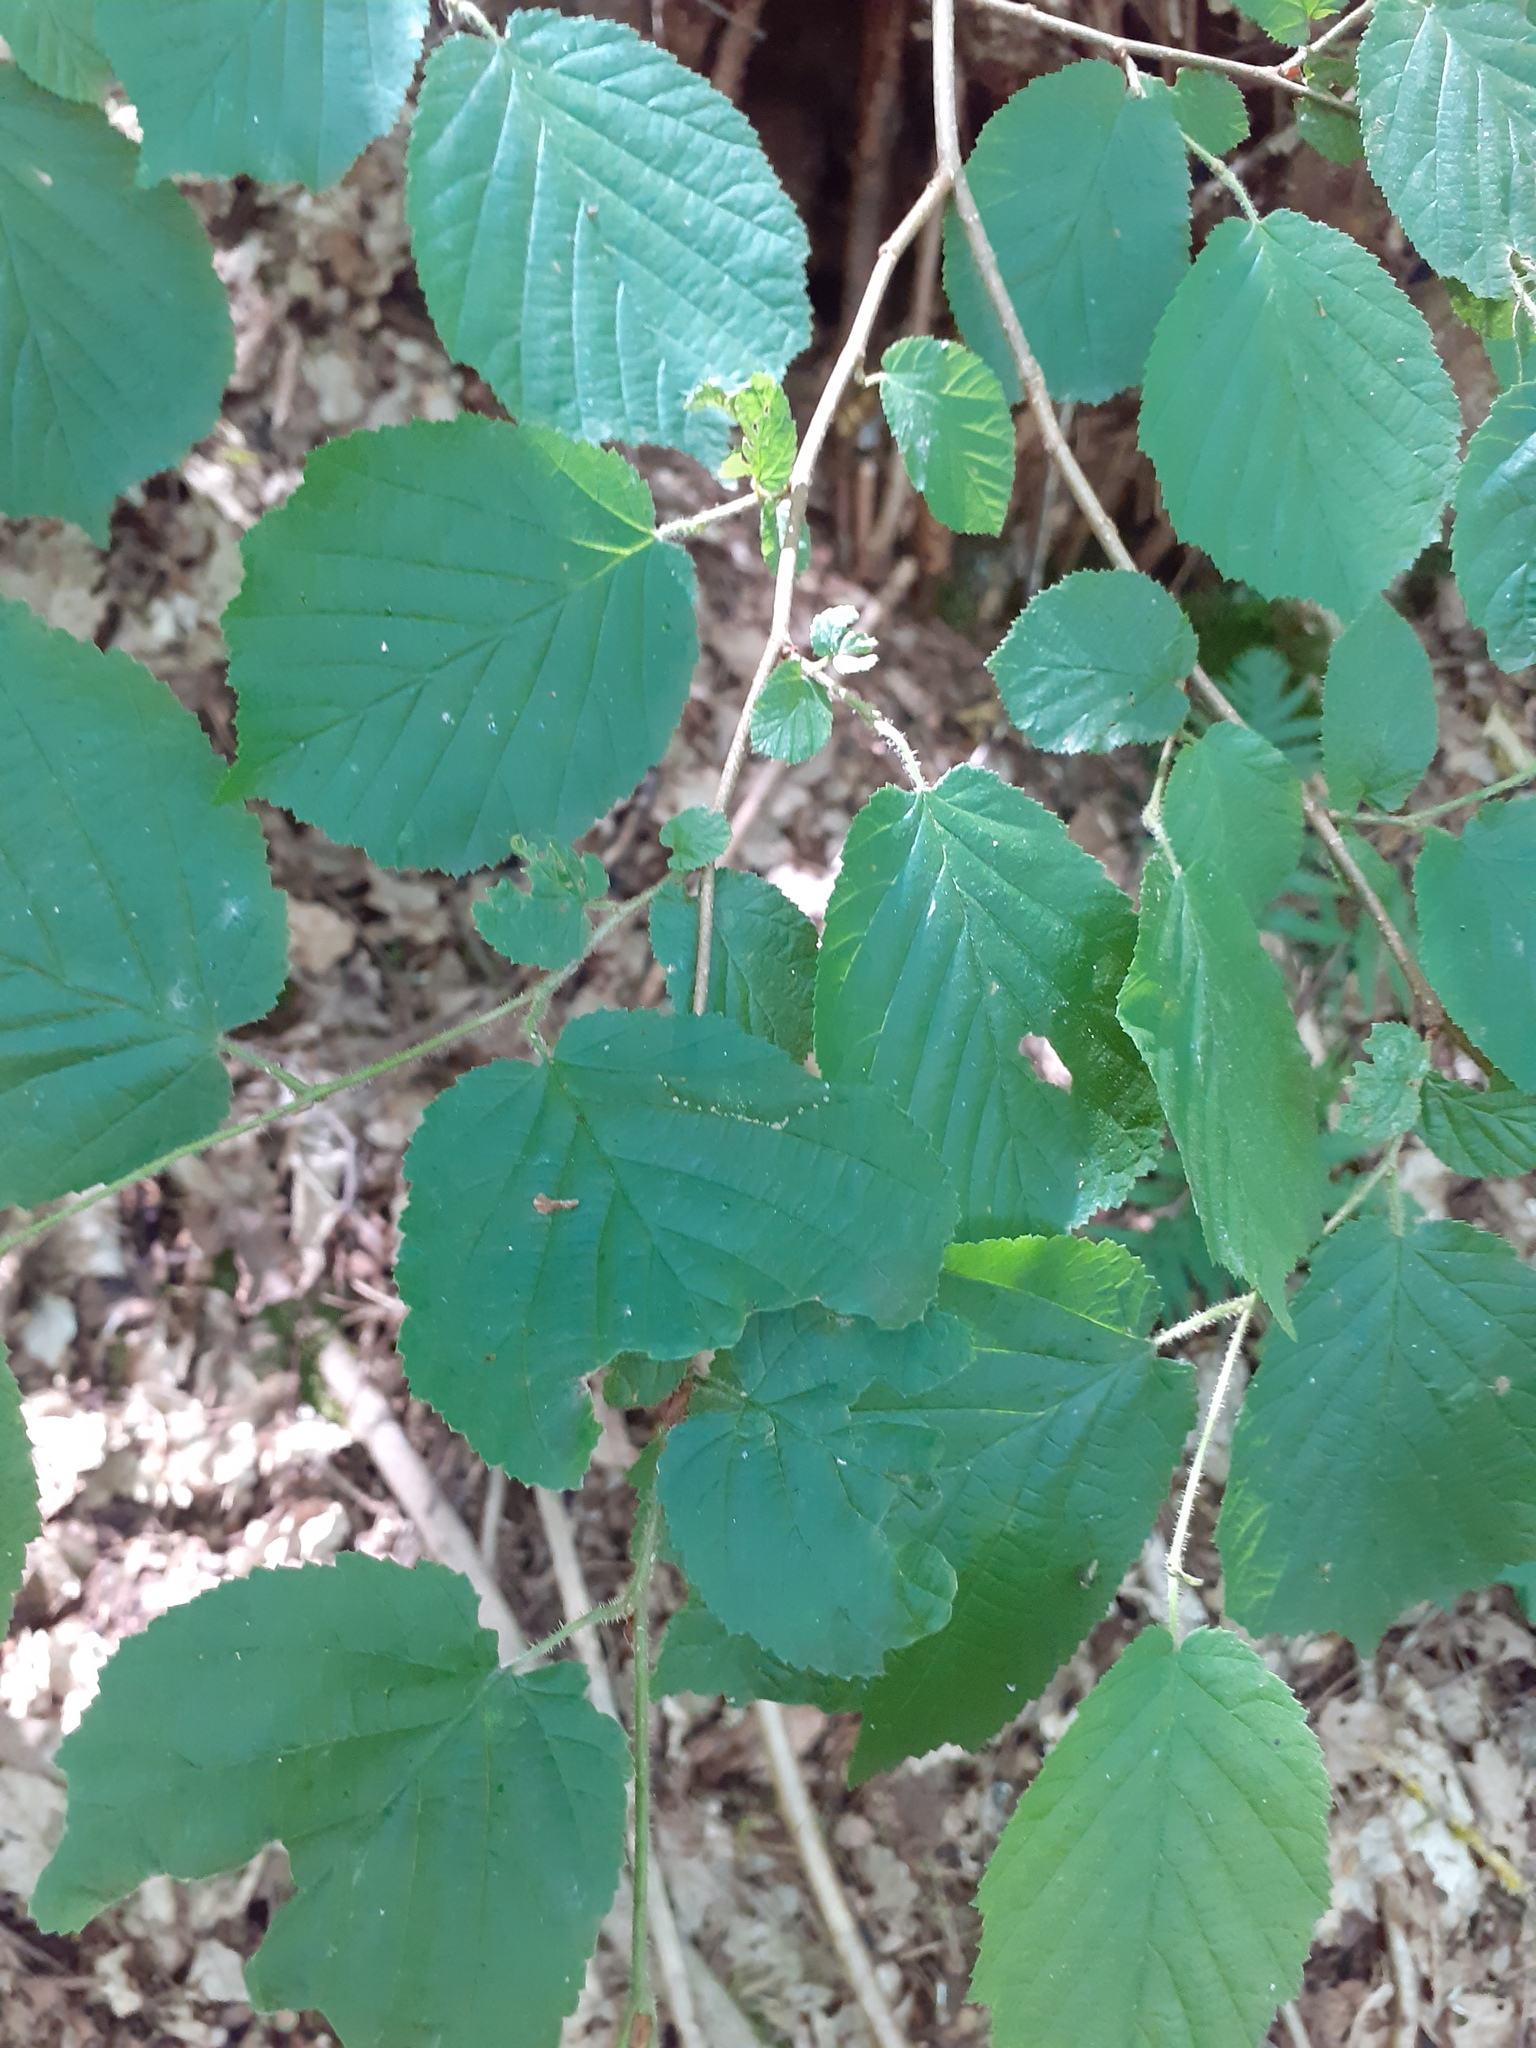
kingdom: Plantae
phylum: Tracheophyta
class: Magnoliopsida
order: Fagales
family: Betulaceae
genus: Corylus
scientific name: Corylus avellana
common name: European hazel
